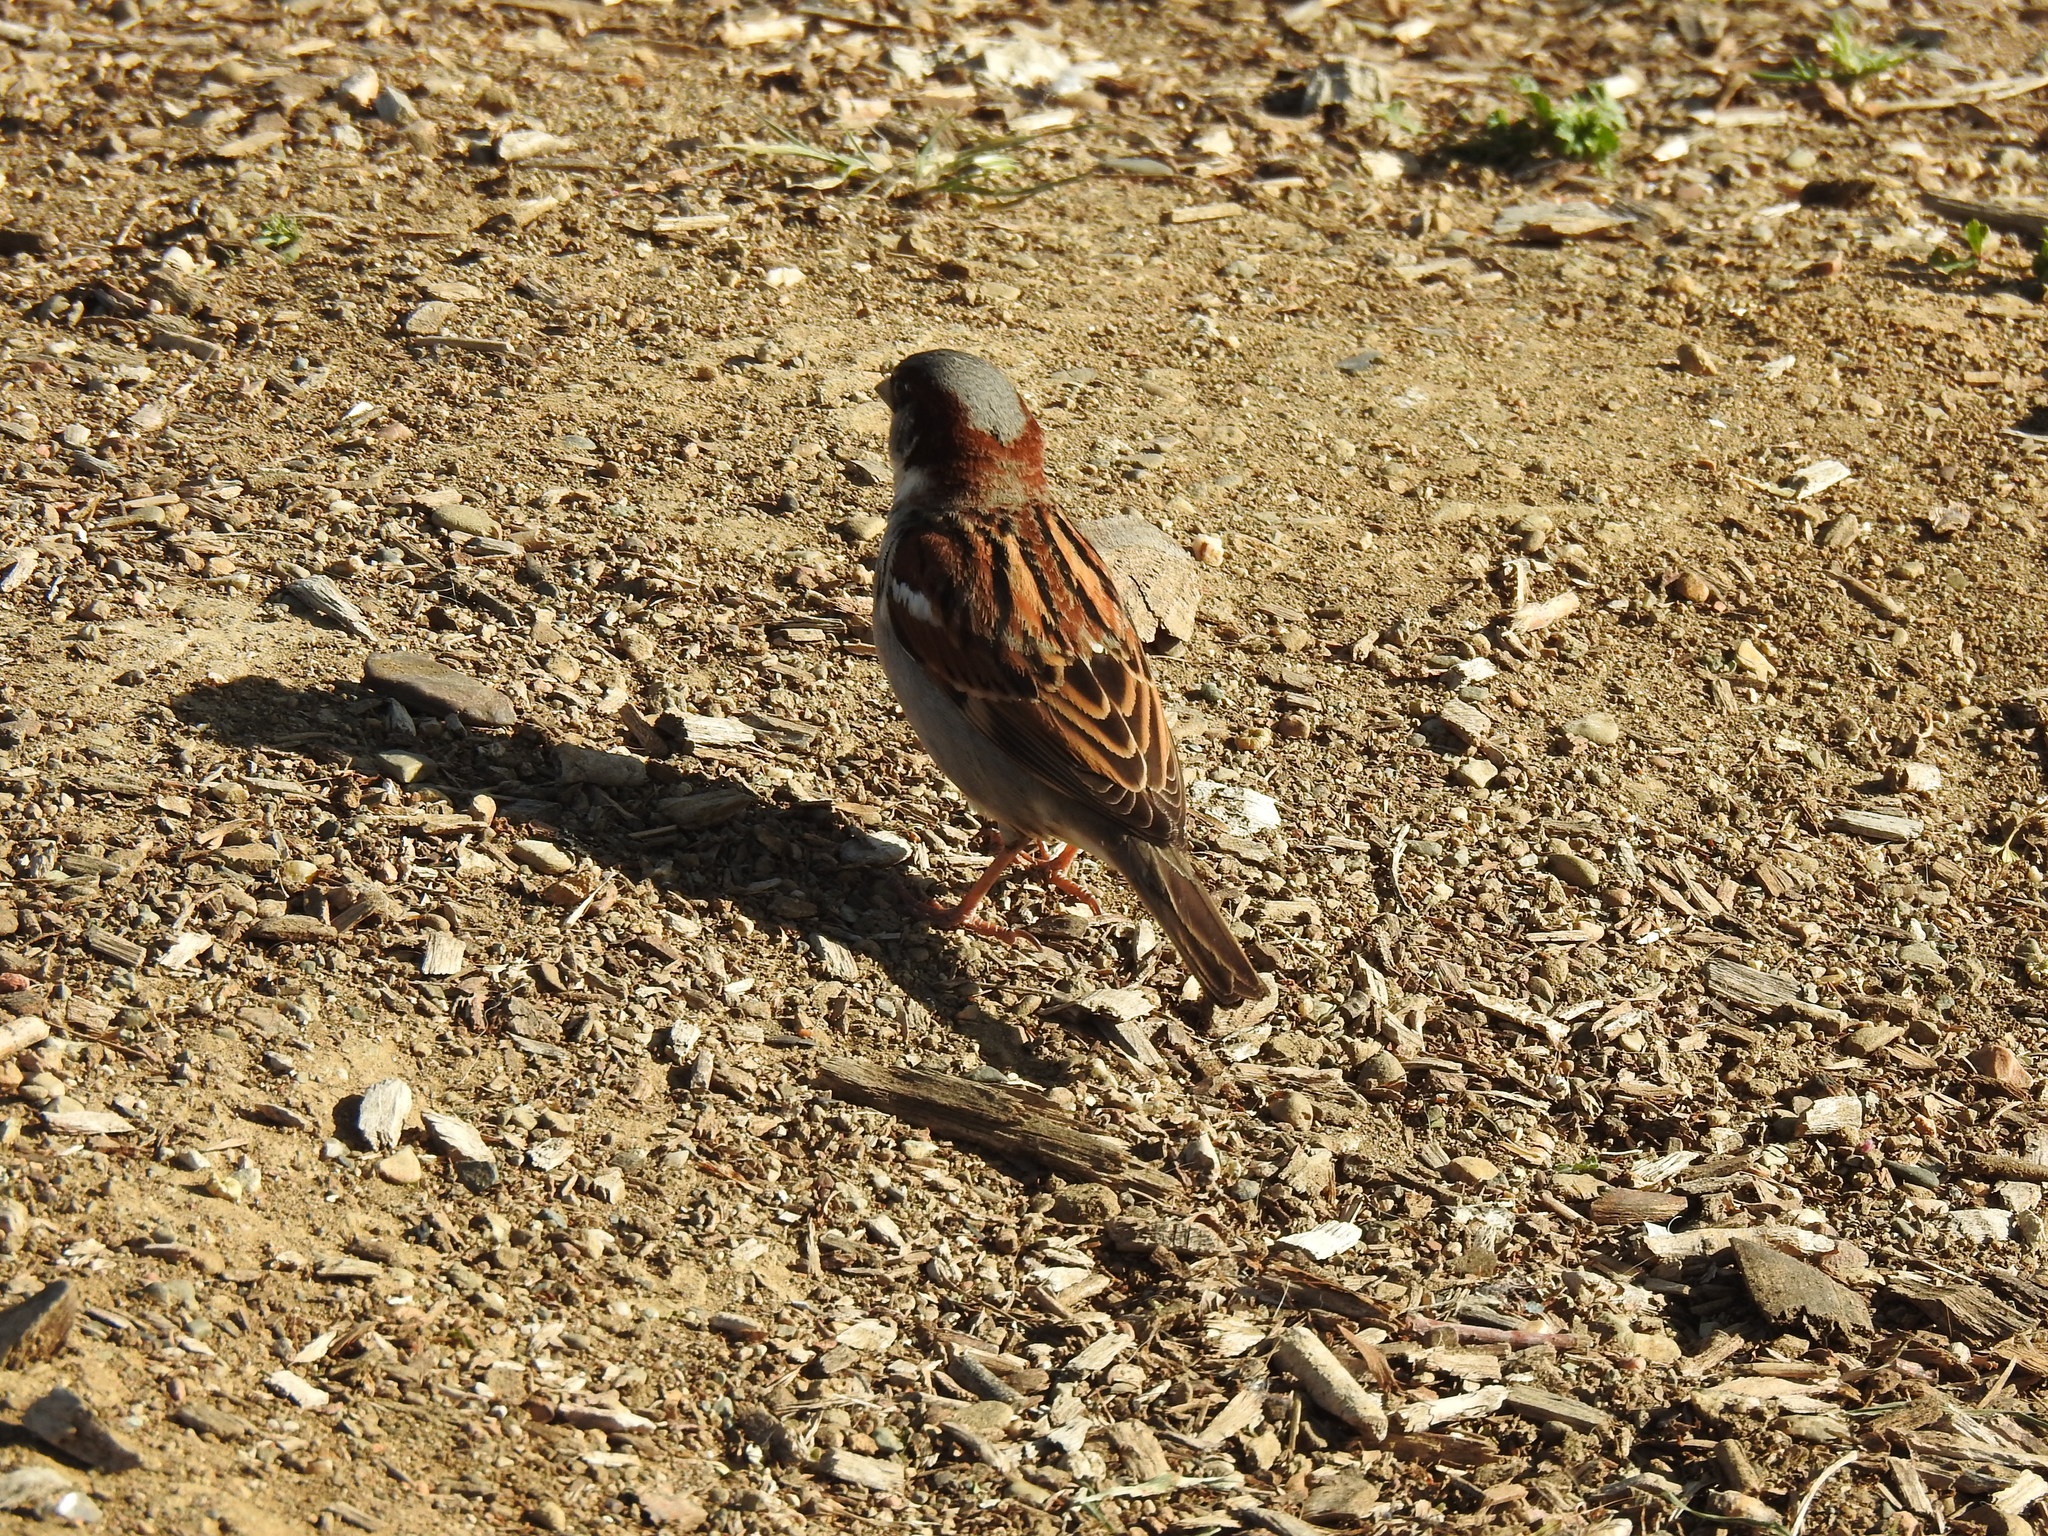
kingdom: Animalia
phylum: Chordata
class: Aves
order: Passeriformes
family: Passeridae
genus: Passer
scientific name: Passer domesticus
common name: House sparrow
